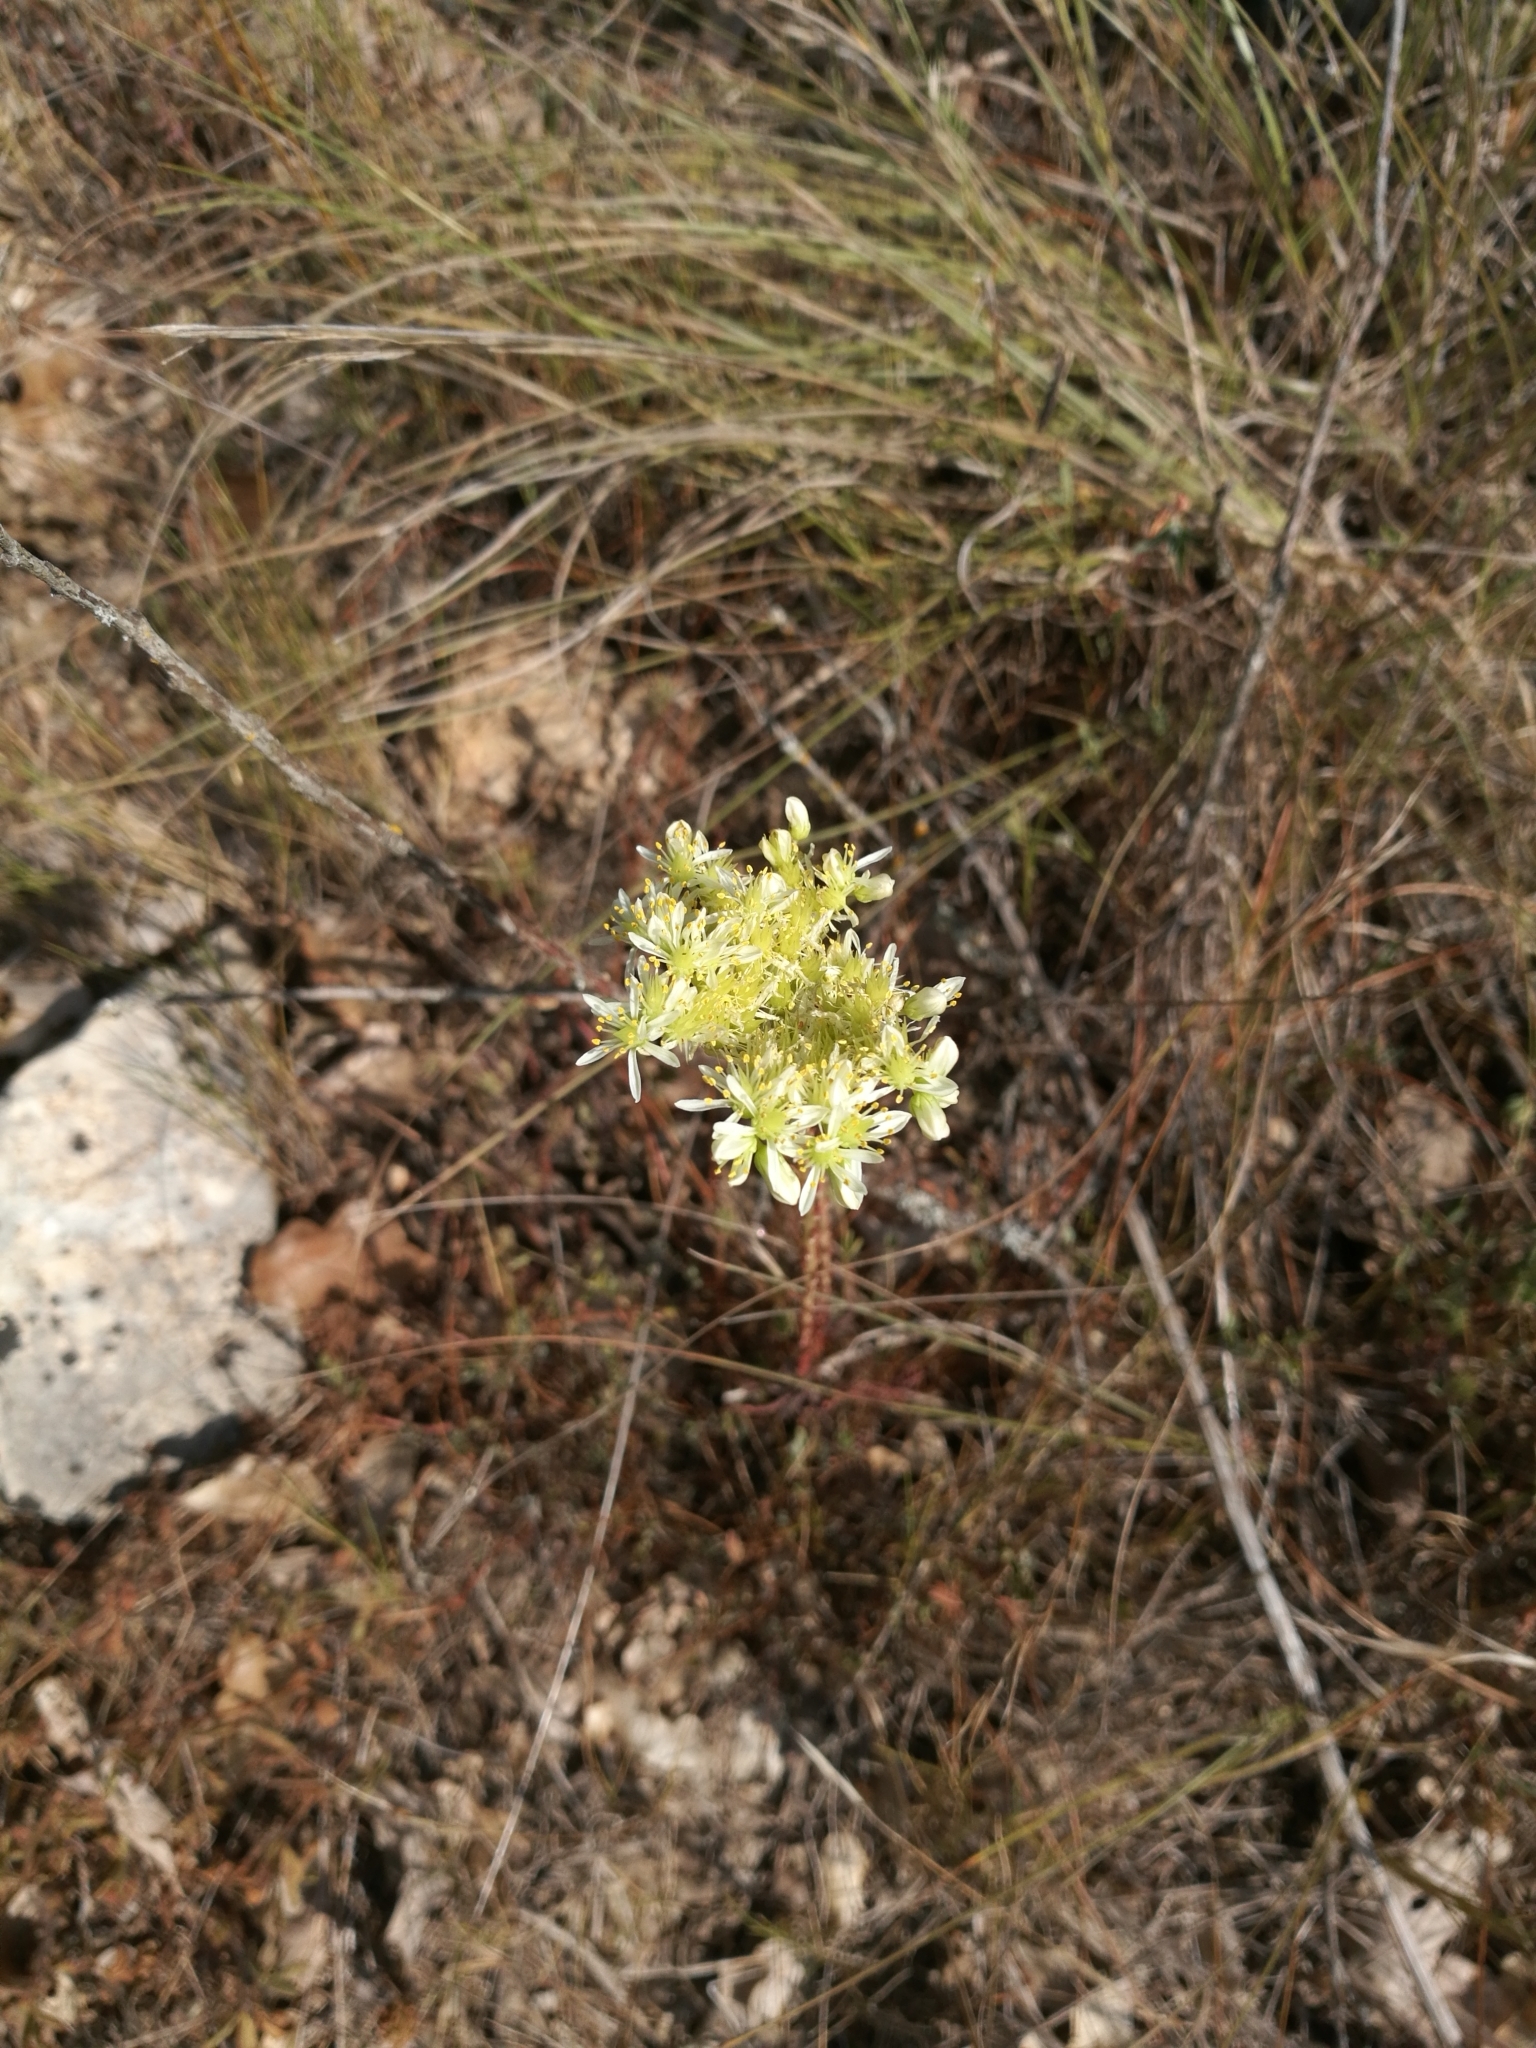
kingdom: Plantae
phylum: Tracheophyta
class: Magnoliopsida
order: Saxifragales
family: Crassulaceae
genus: Petrosedum
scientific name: Petrosedum sediforme
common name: Pale stonecrop
